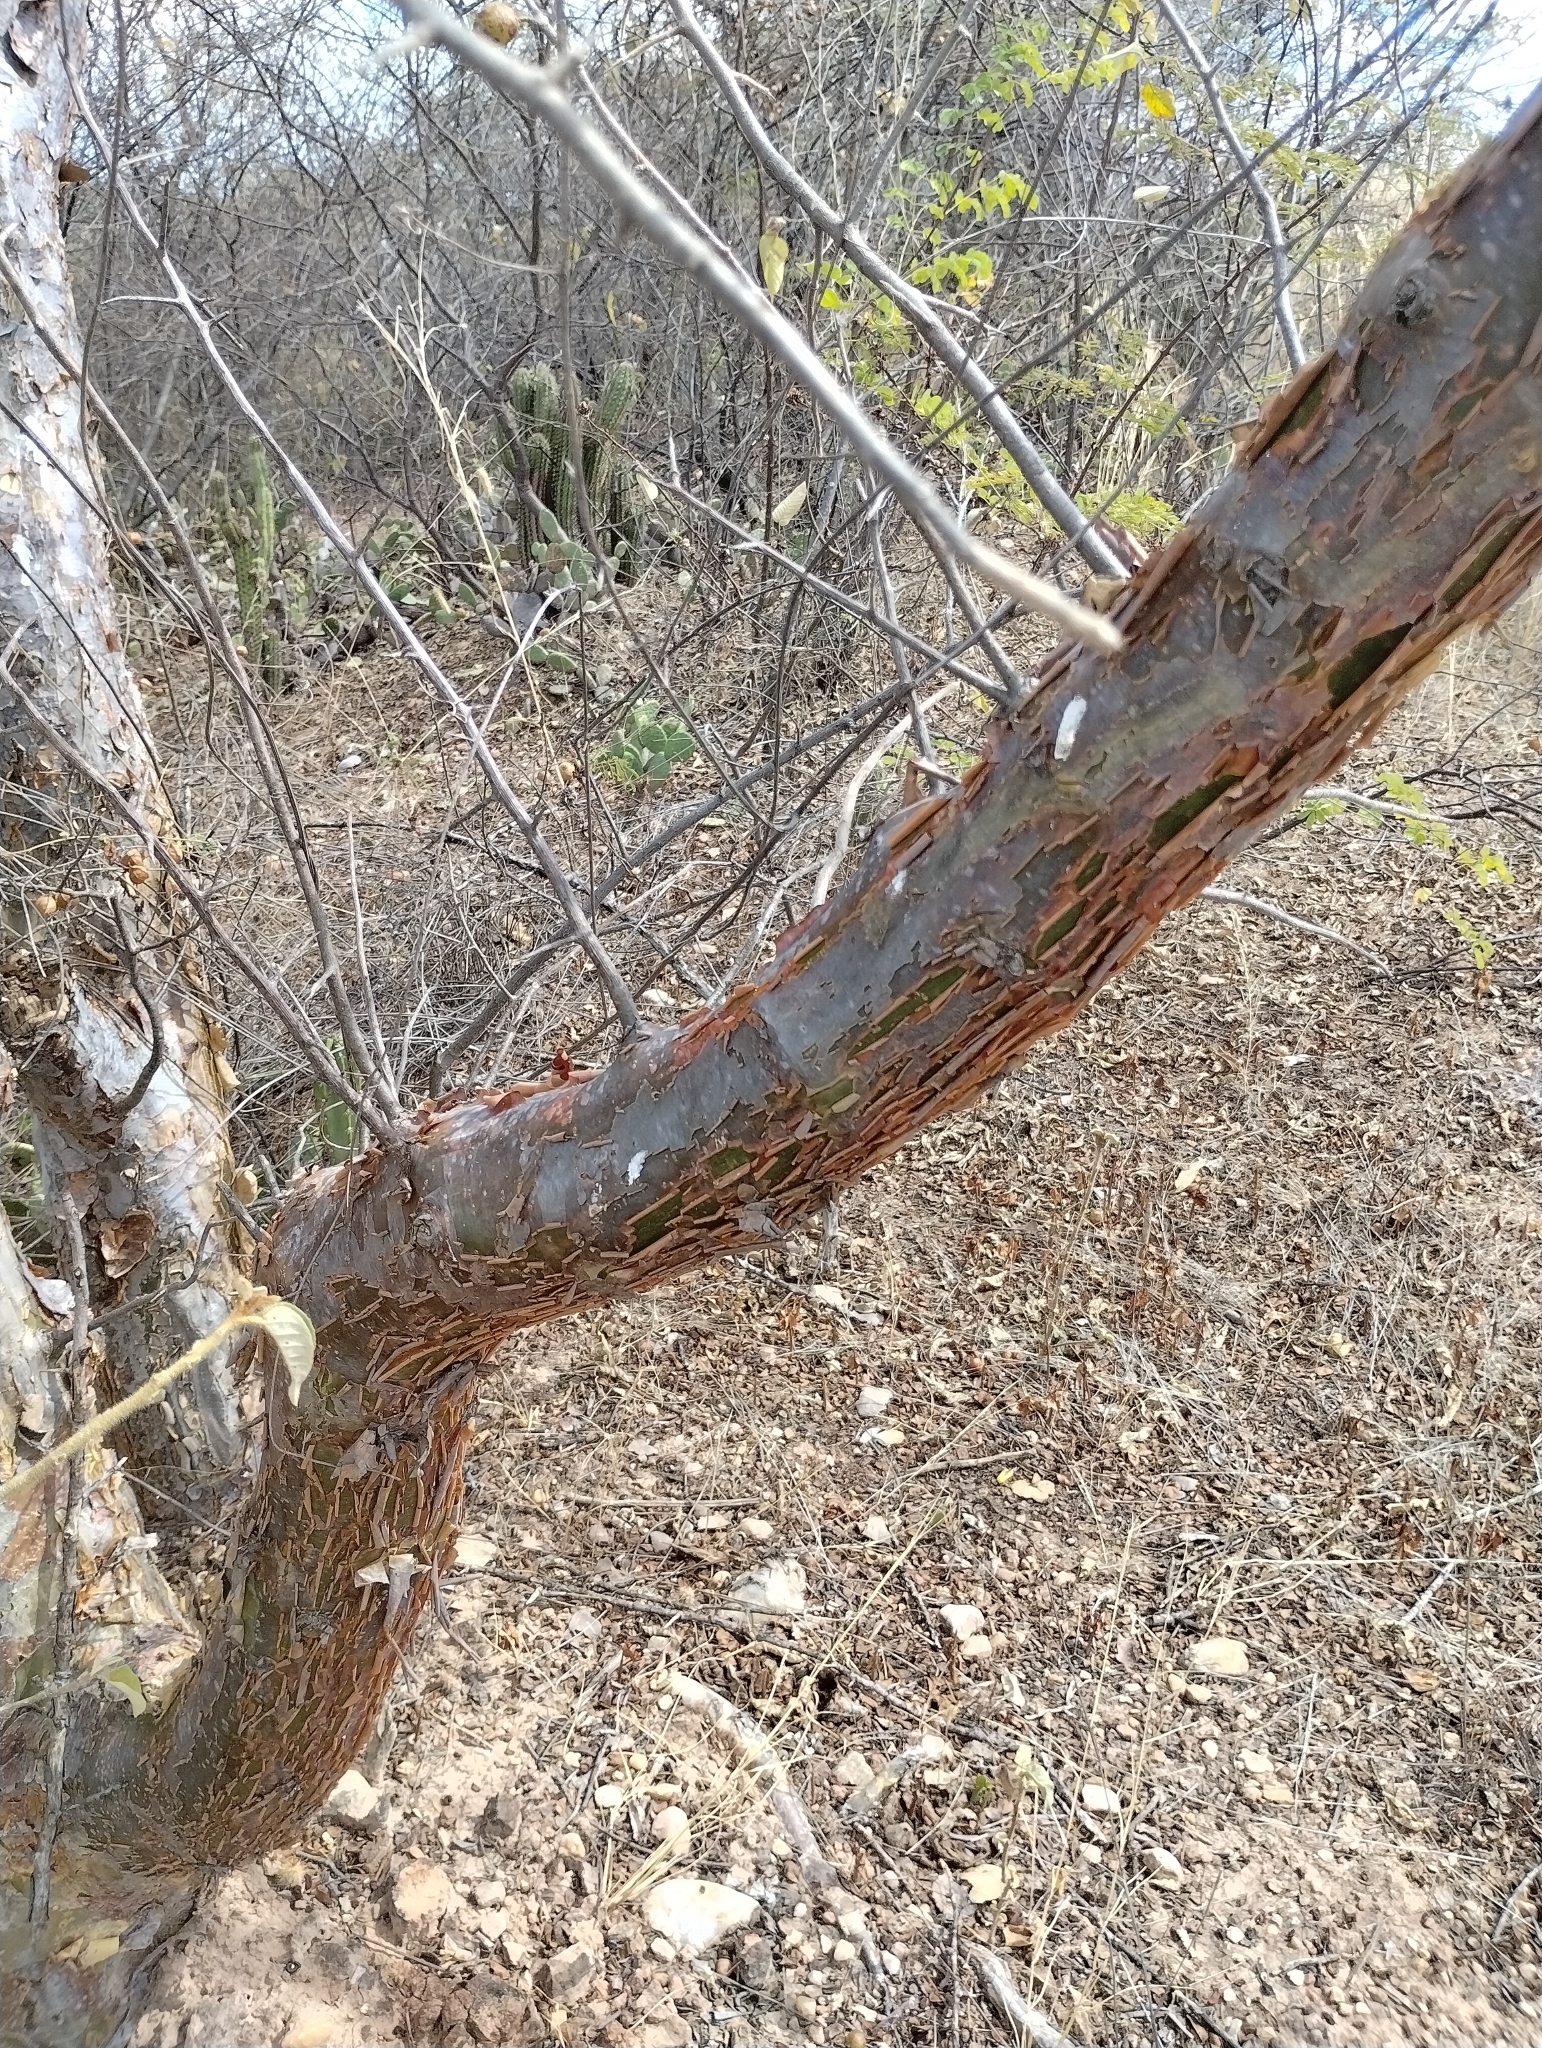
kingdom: Plantae
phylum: Tracheophyta
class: Magnoliopsida
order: Sapindales
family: Burseraceae
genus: Bursera
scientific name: Bursera leptophloeos
